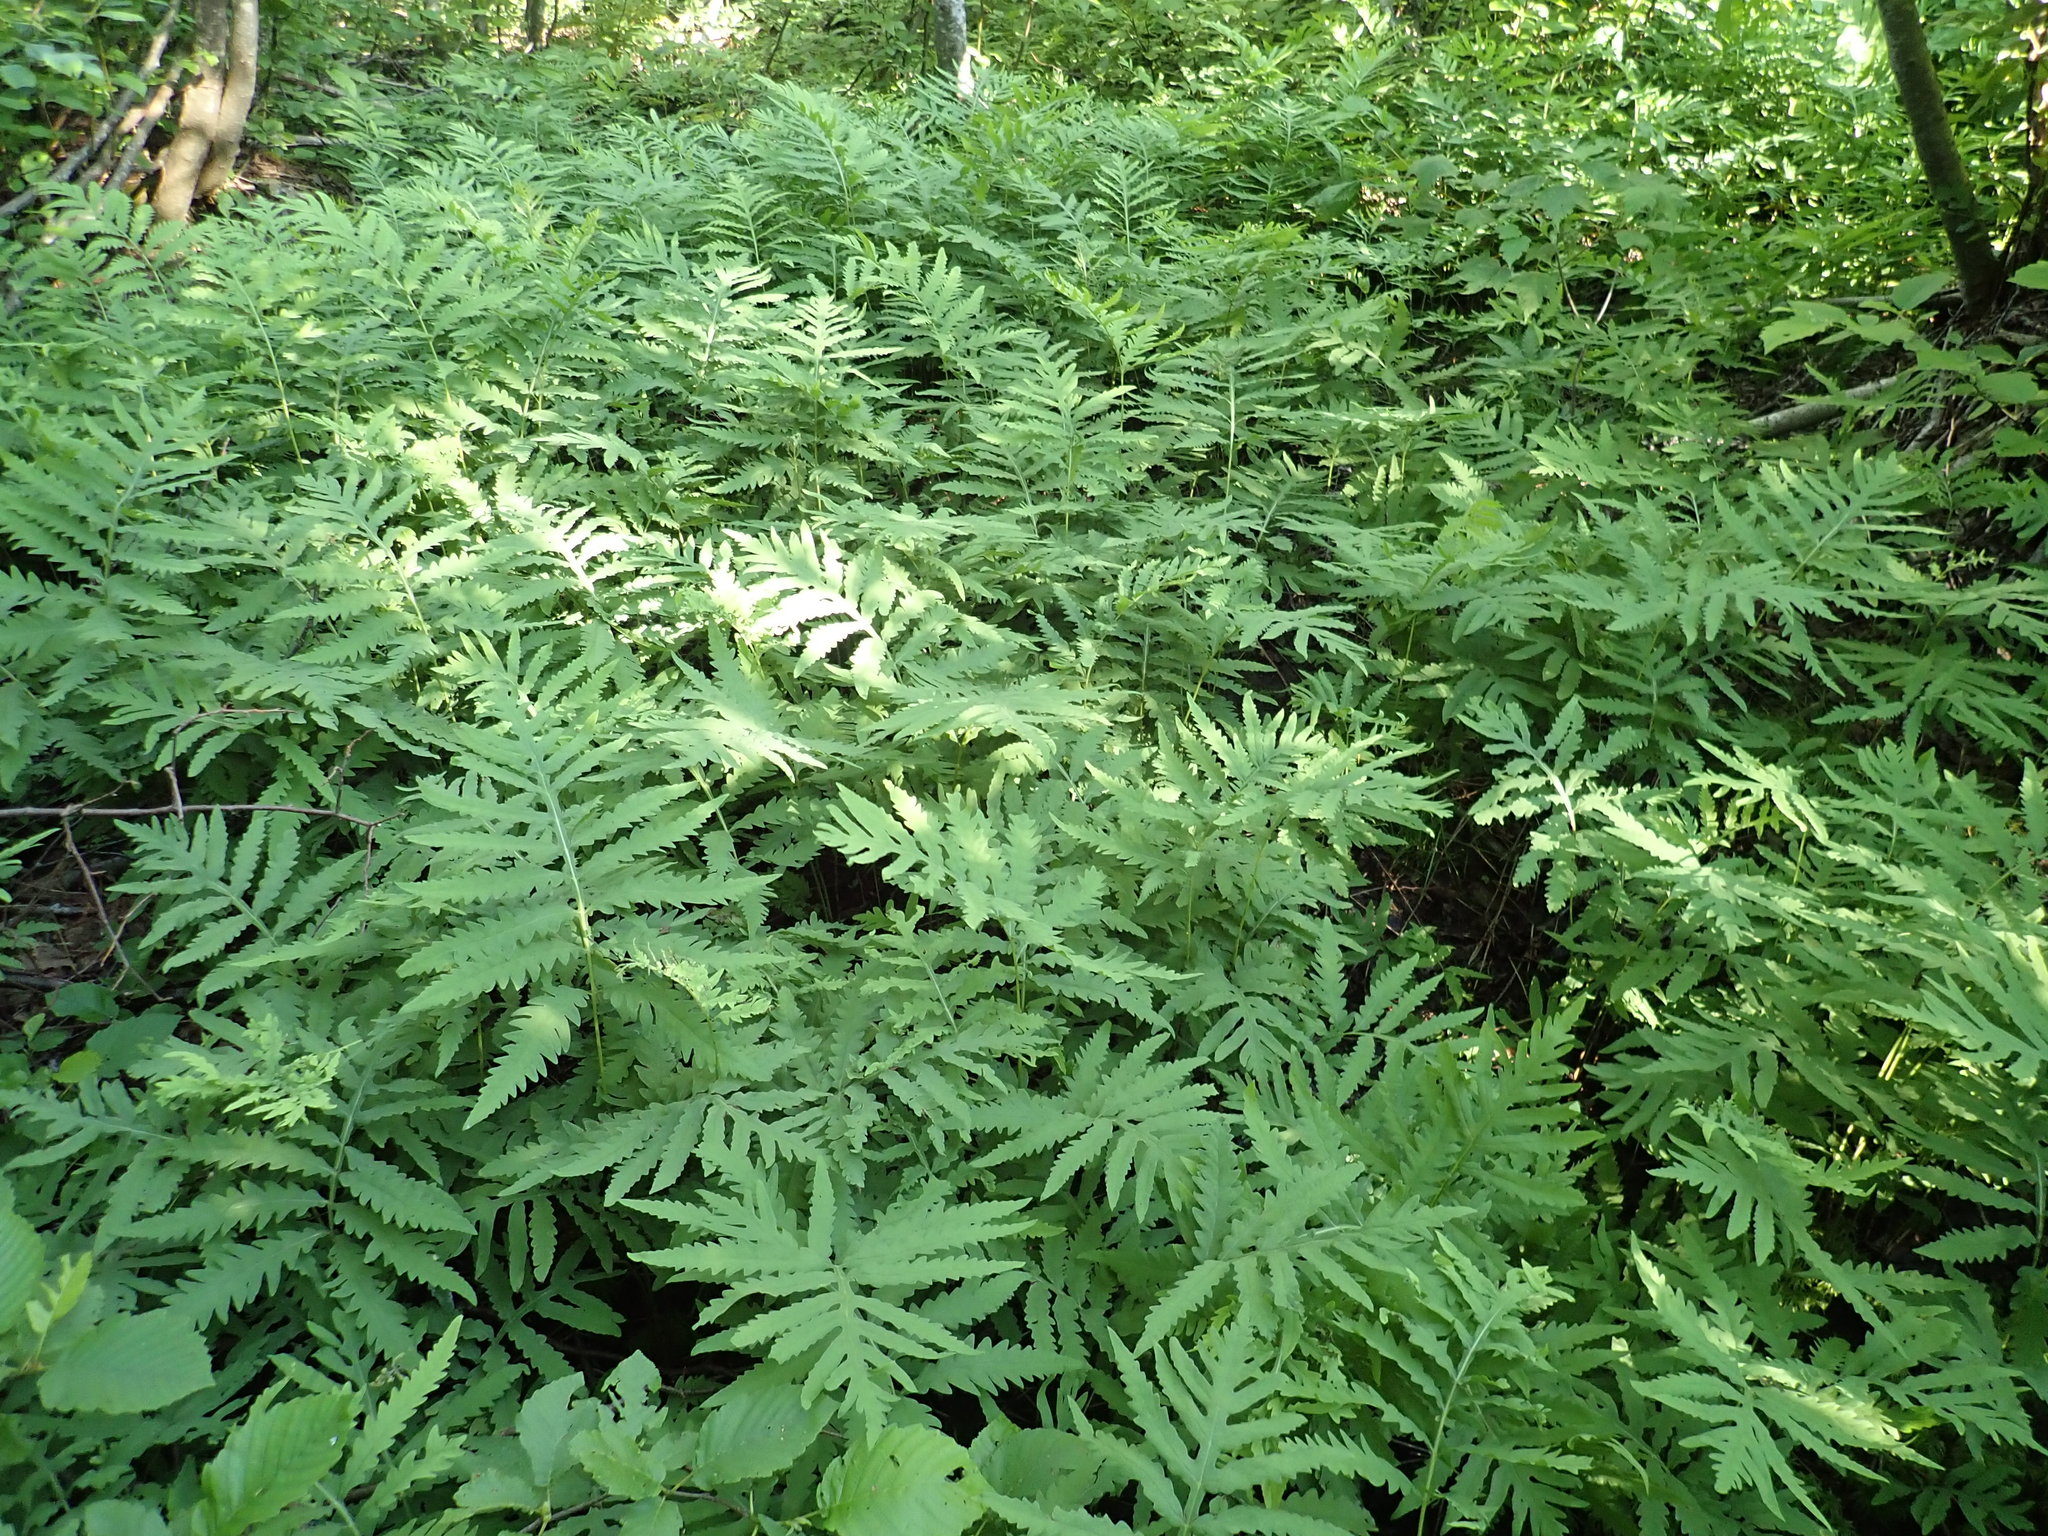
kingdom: Plantae
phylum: Tracheophyta
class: Polypodiopsida
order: Polypodiales
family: Onocleaceae
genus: Onoclea
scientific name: Onoclea sensibilis
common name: Sensitive fern
